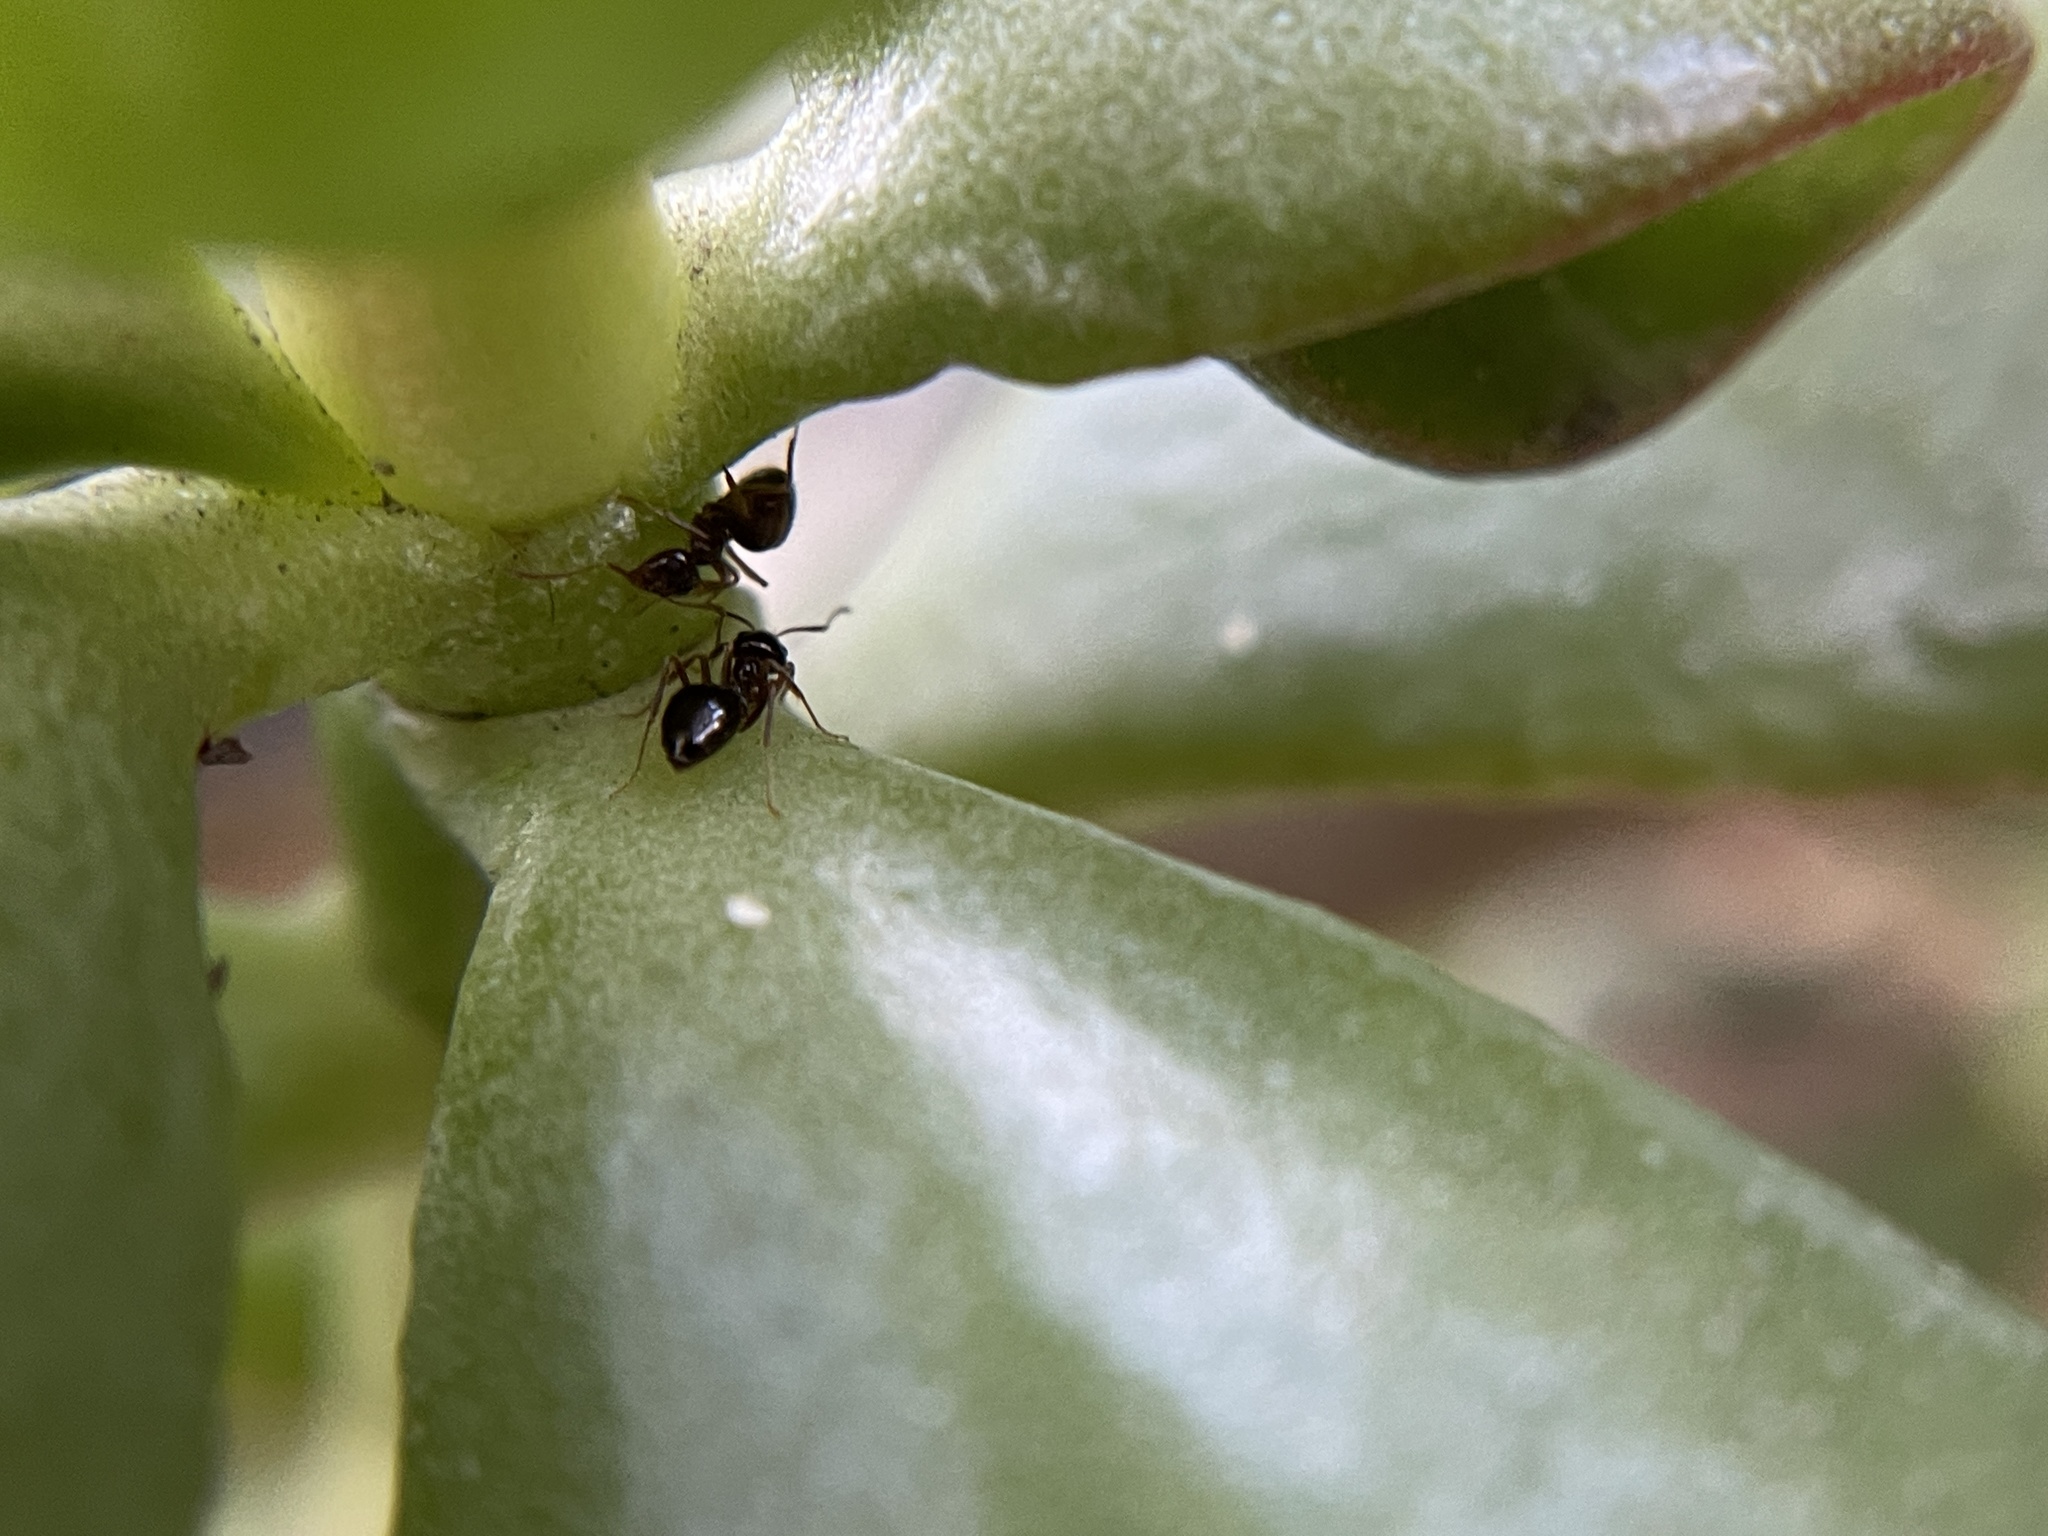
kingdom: Animalia
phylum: Arthropoda
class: Insecta
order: Hymenoptera
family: Formicidae
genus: Prenolepis
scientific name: Prenolepis imparis
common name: Small honey ant
